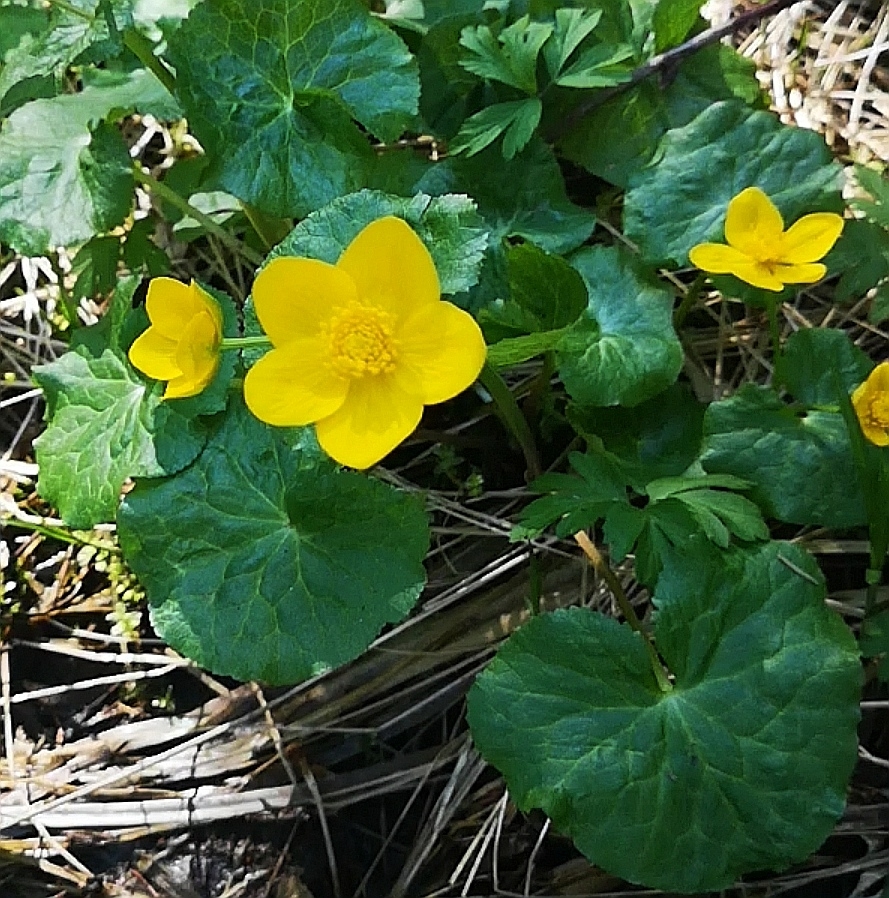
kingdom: Plantae
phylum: Tracheophyta
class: Magnoliopsida
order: Ranunculales
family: Ranunculaceae
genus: Caltha
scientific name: Caltha palustris
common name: Marsh marigold
